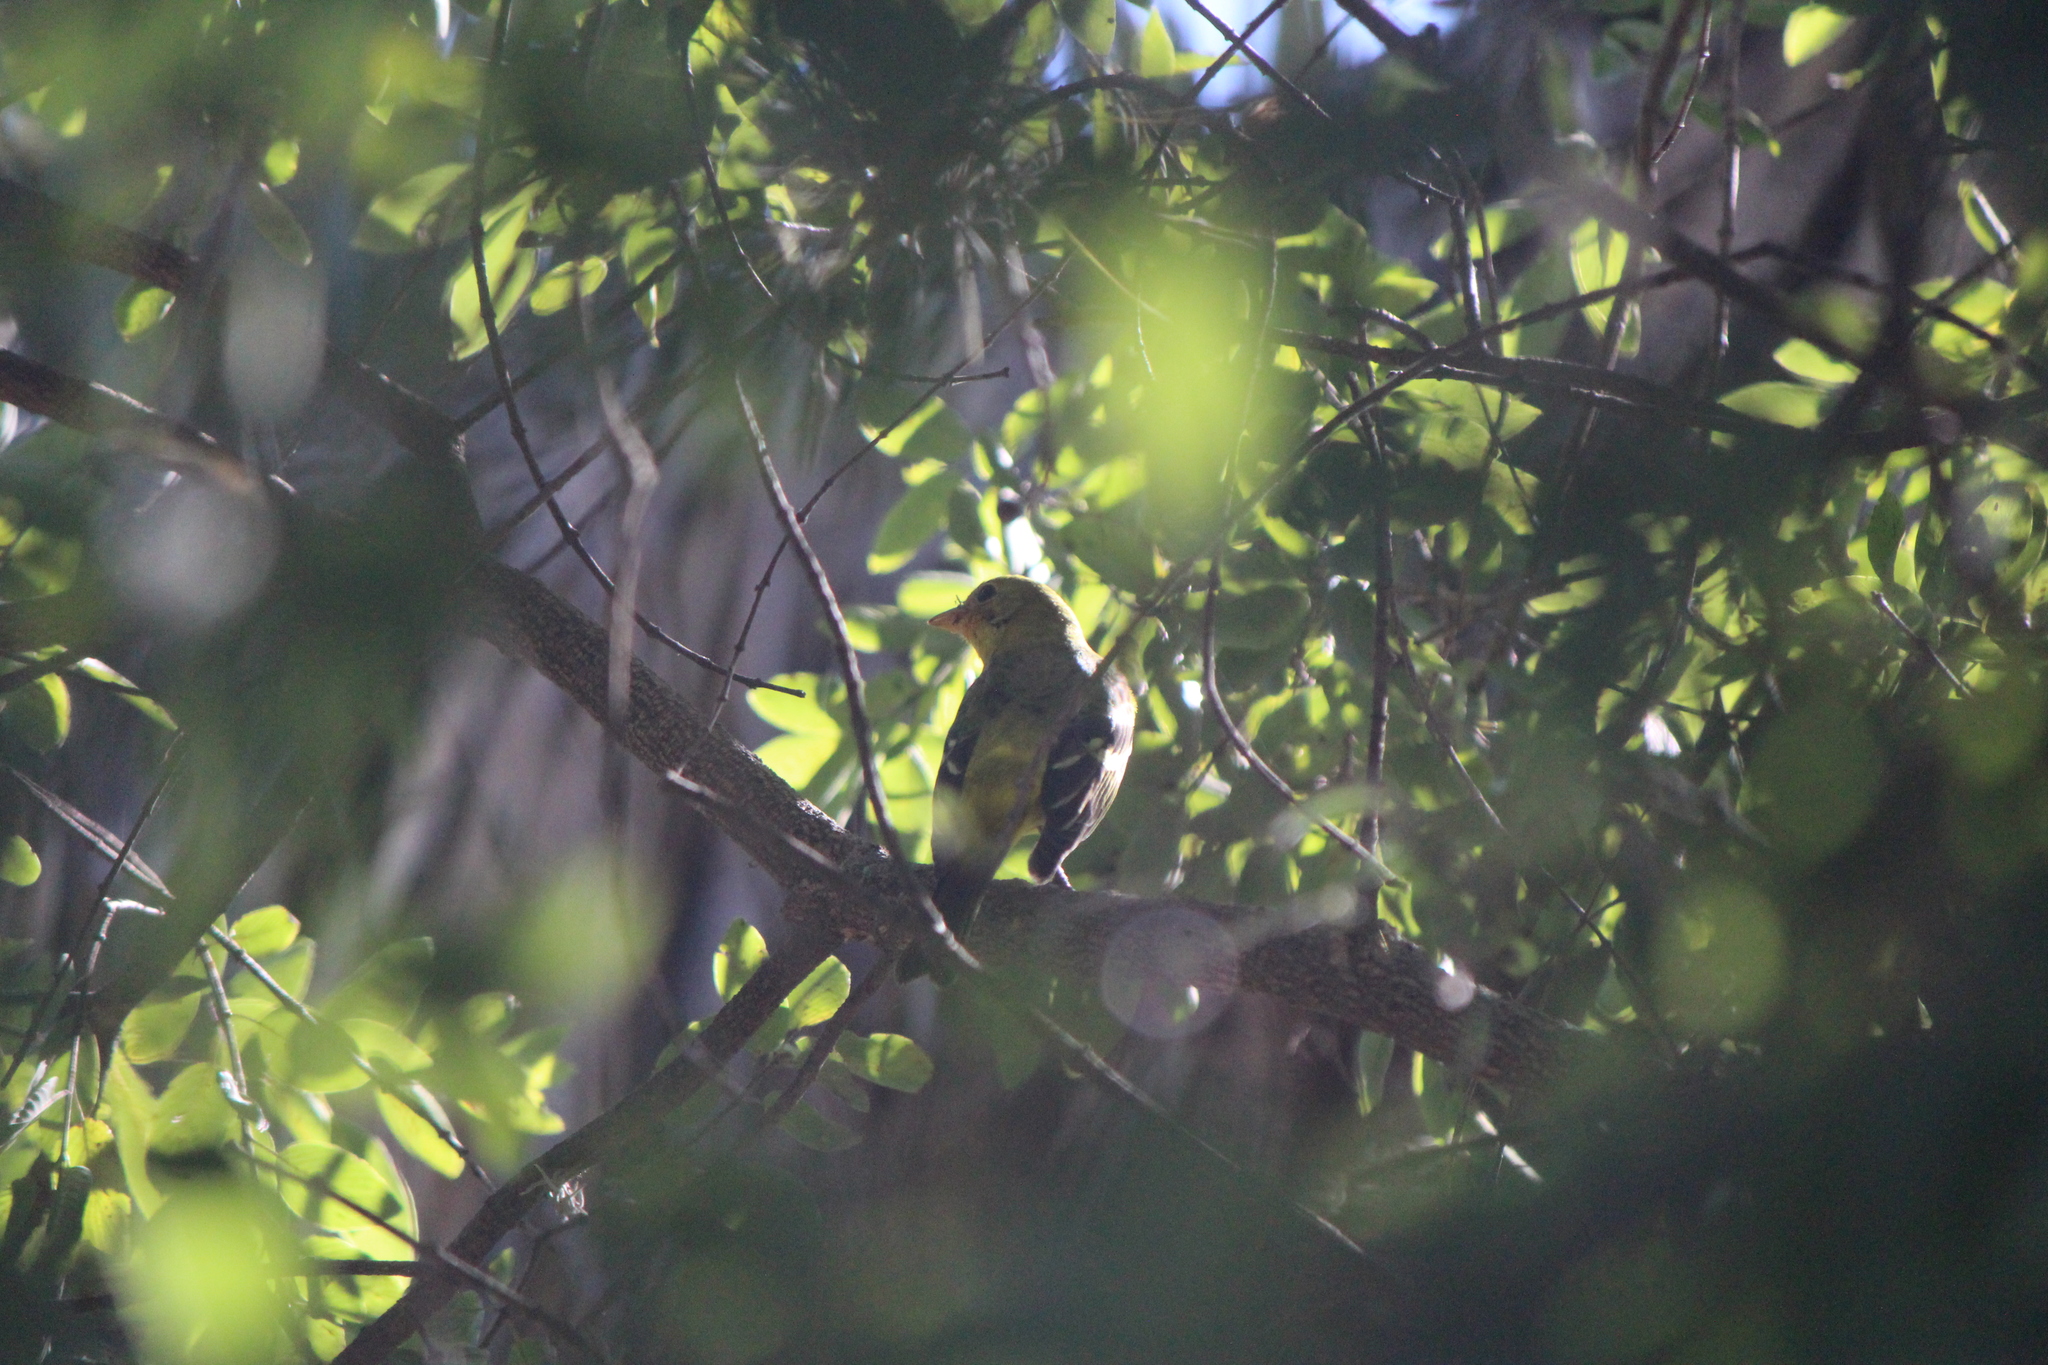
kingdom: Animalia
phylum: Chordata
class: Aves
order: Passeriformes
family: Cardinalidae
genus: Piranga
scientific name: Piranga ludoviciana
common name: Western tanager
